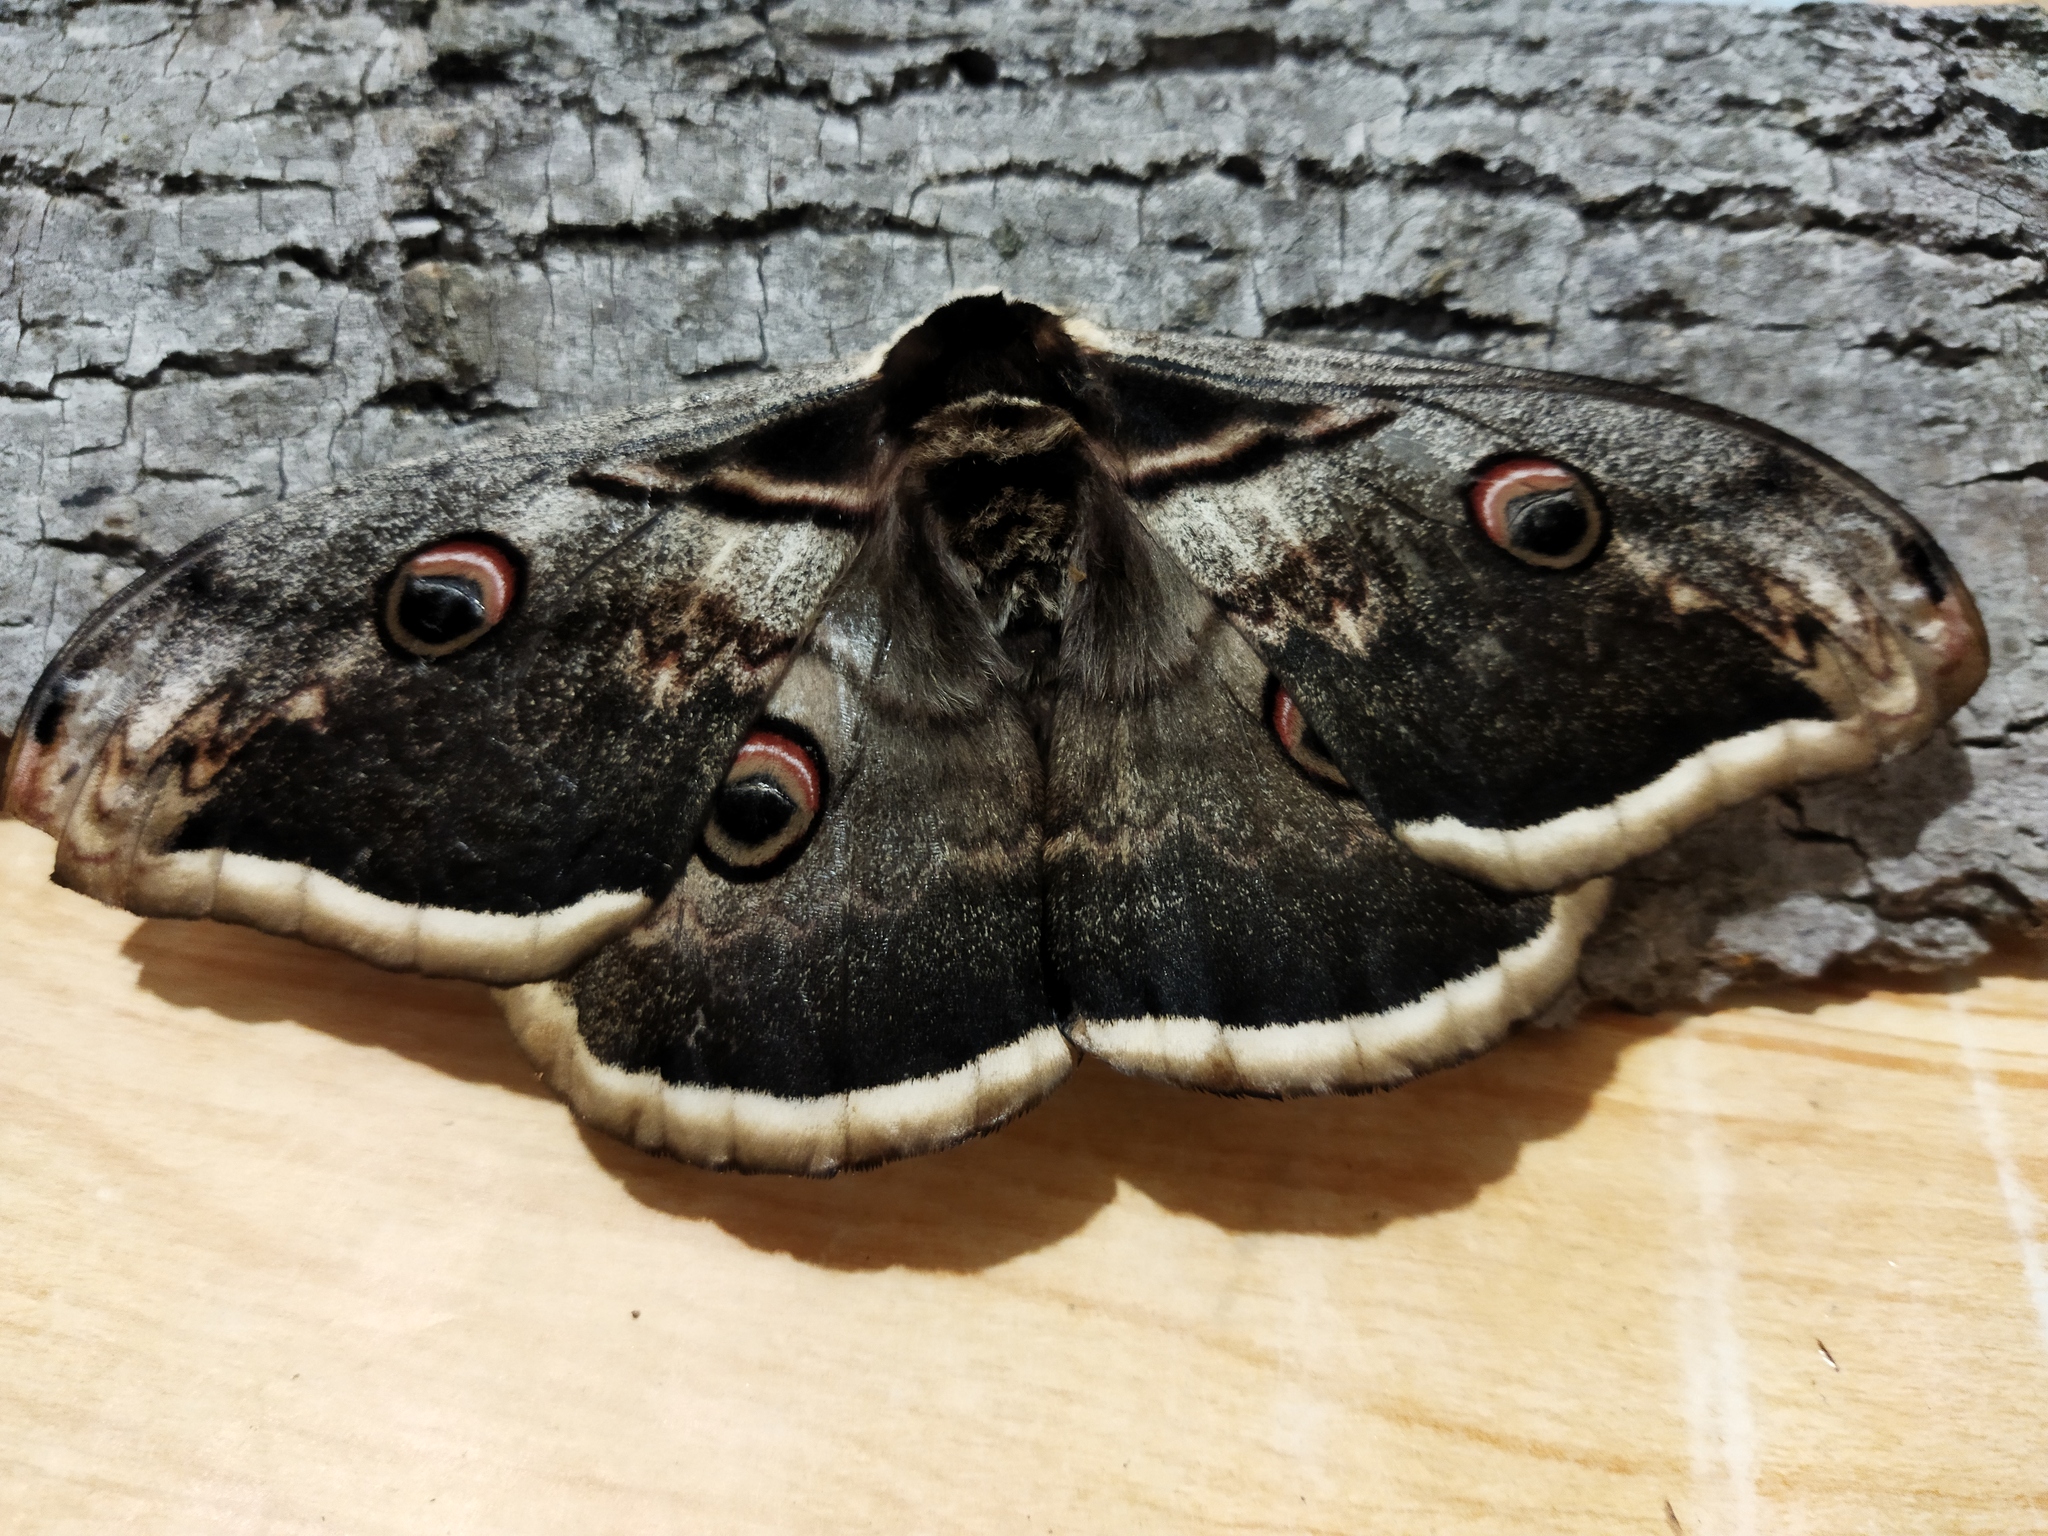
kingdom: Animalia
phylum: Arthropoda
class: Insecta
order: Lepidoptera
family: Saturniidae
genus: Saturnia
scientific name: Saturnia pyri
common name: Great peacock moth
